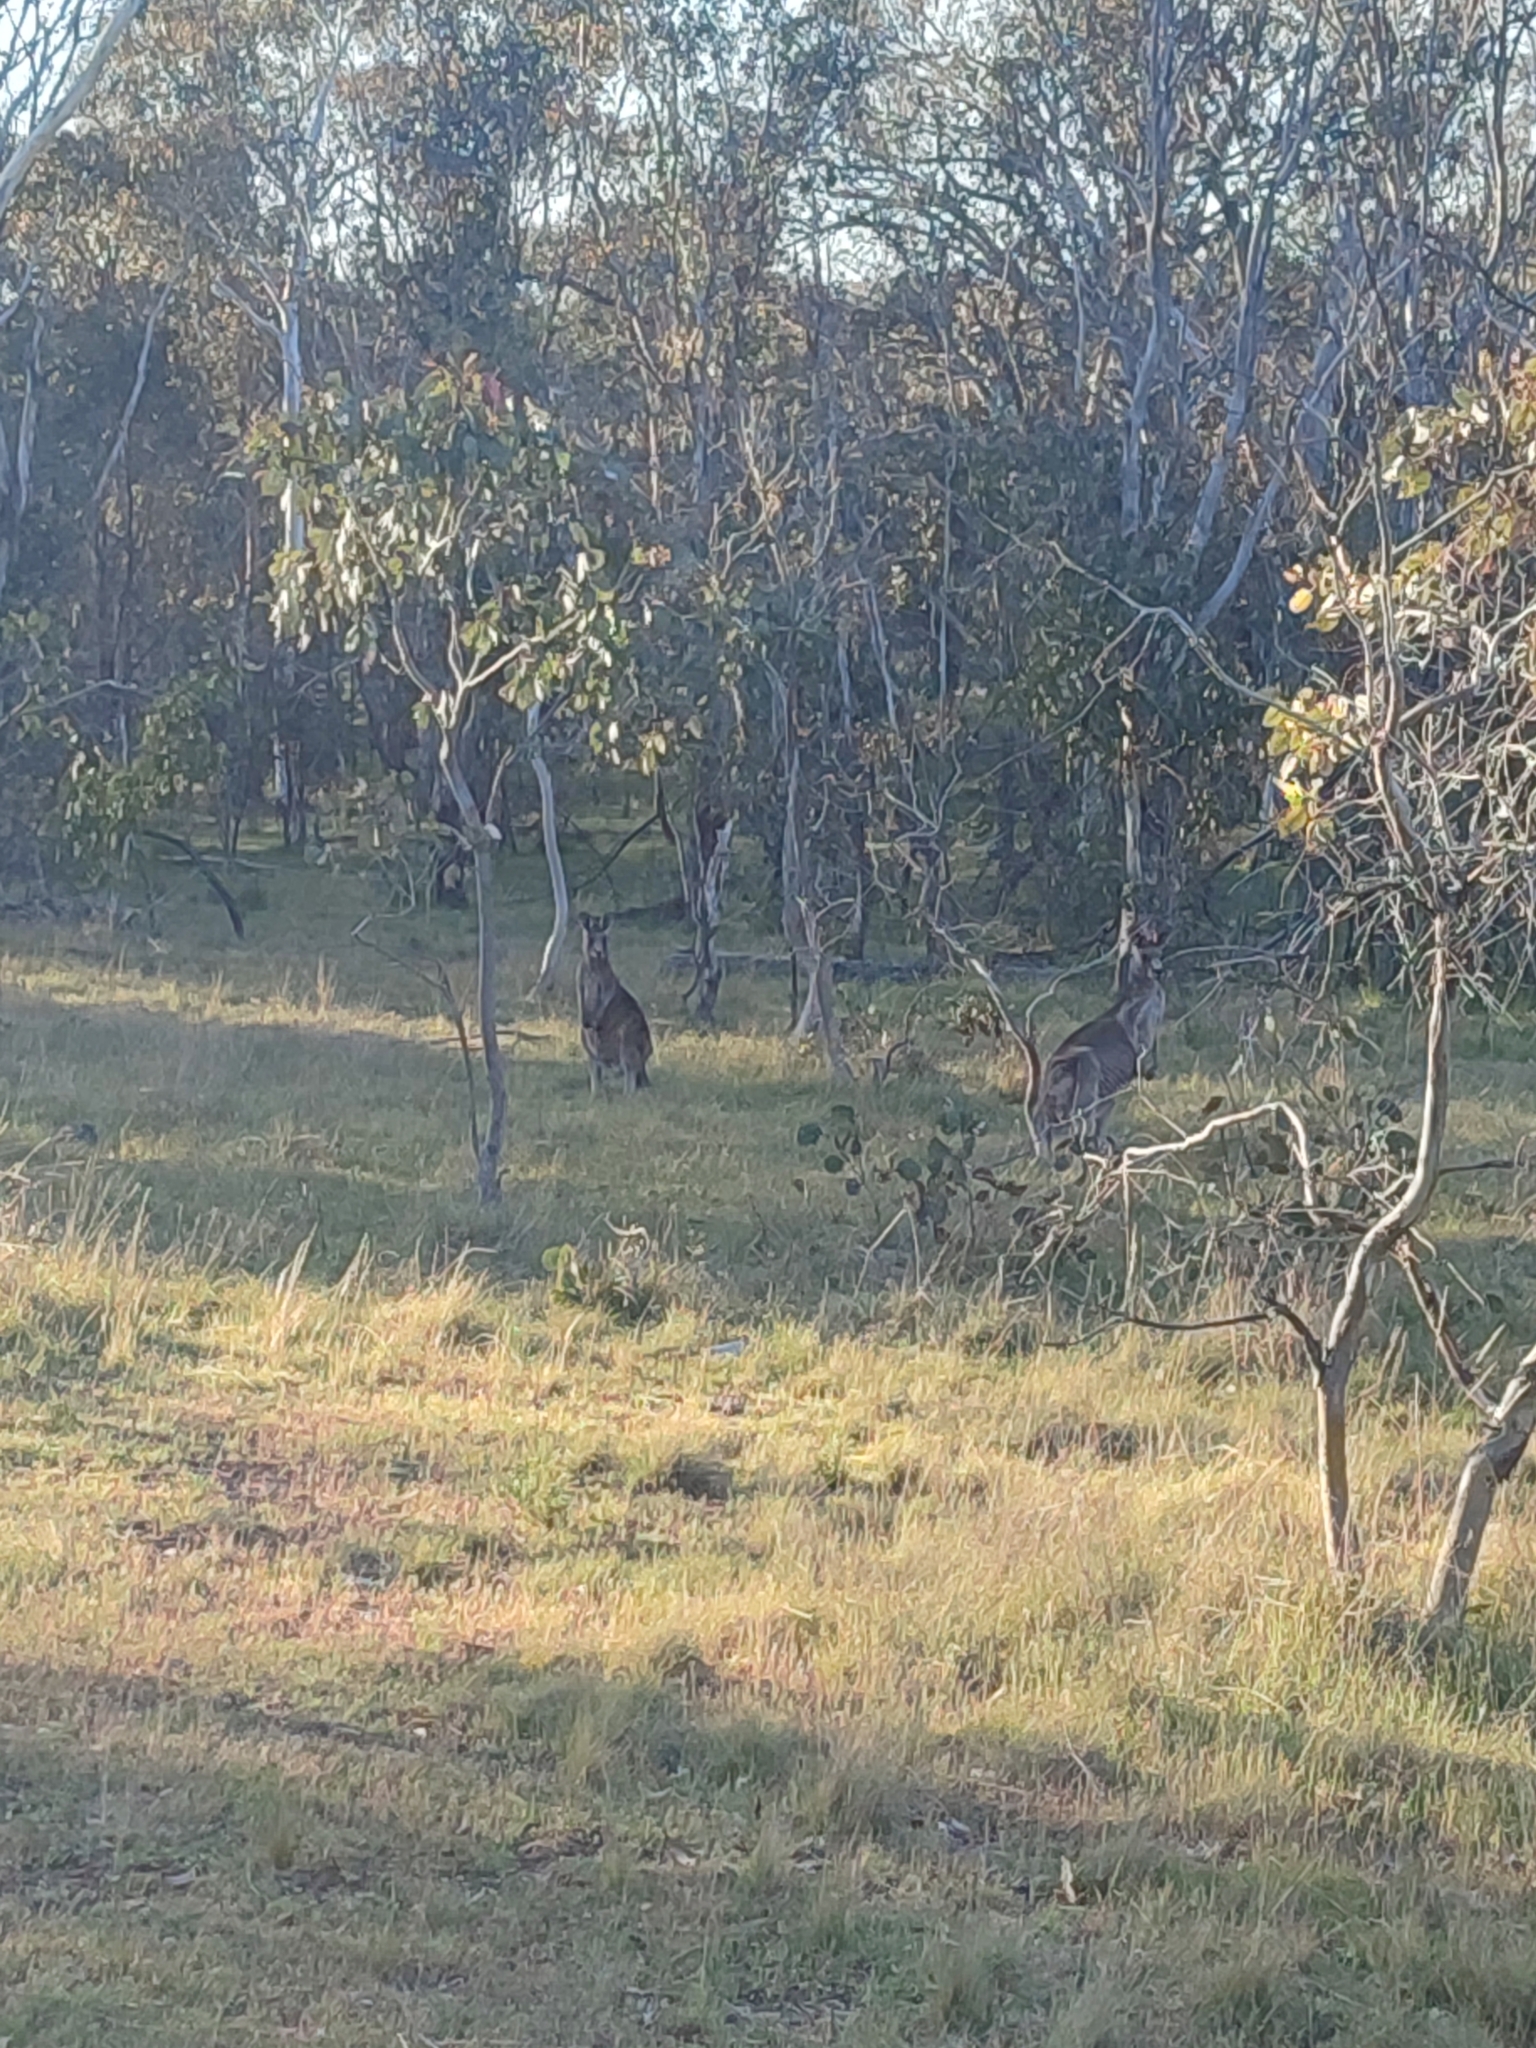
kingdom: Animalia
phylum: Chordata
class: Mammalia
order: Diprotodontia
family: Macropodidae
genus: Macropus
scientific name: Macropus giganteus
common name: Eastern grey kangaroo
